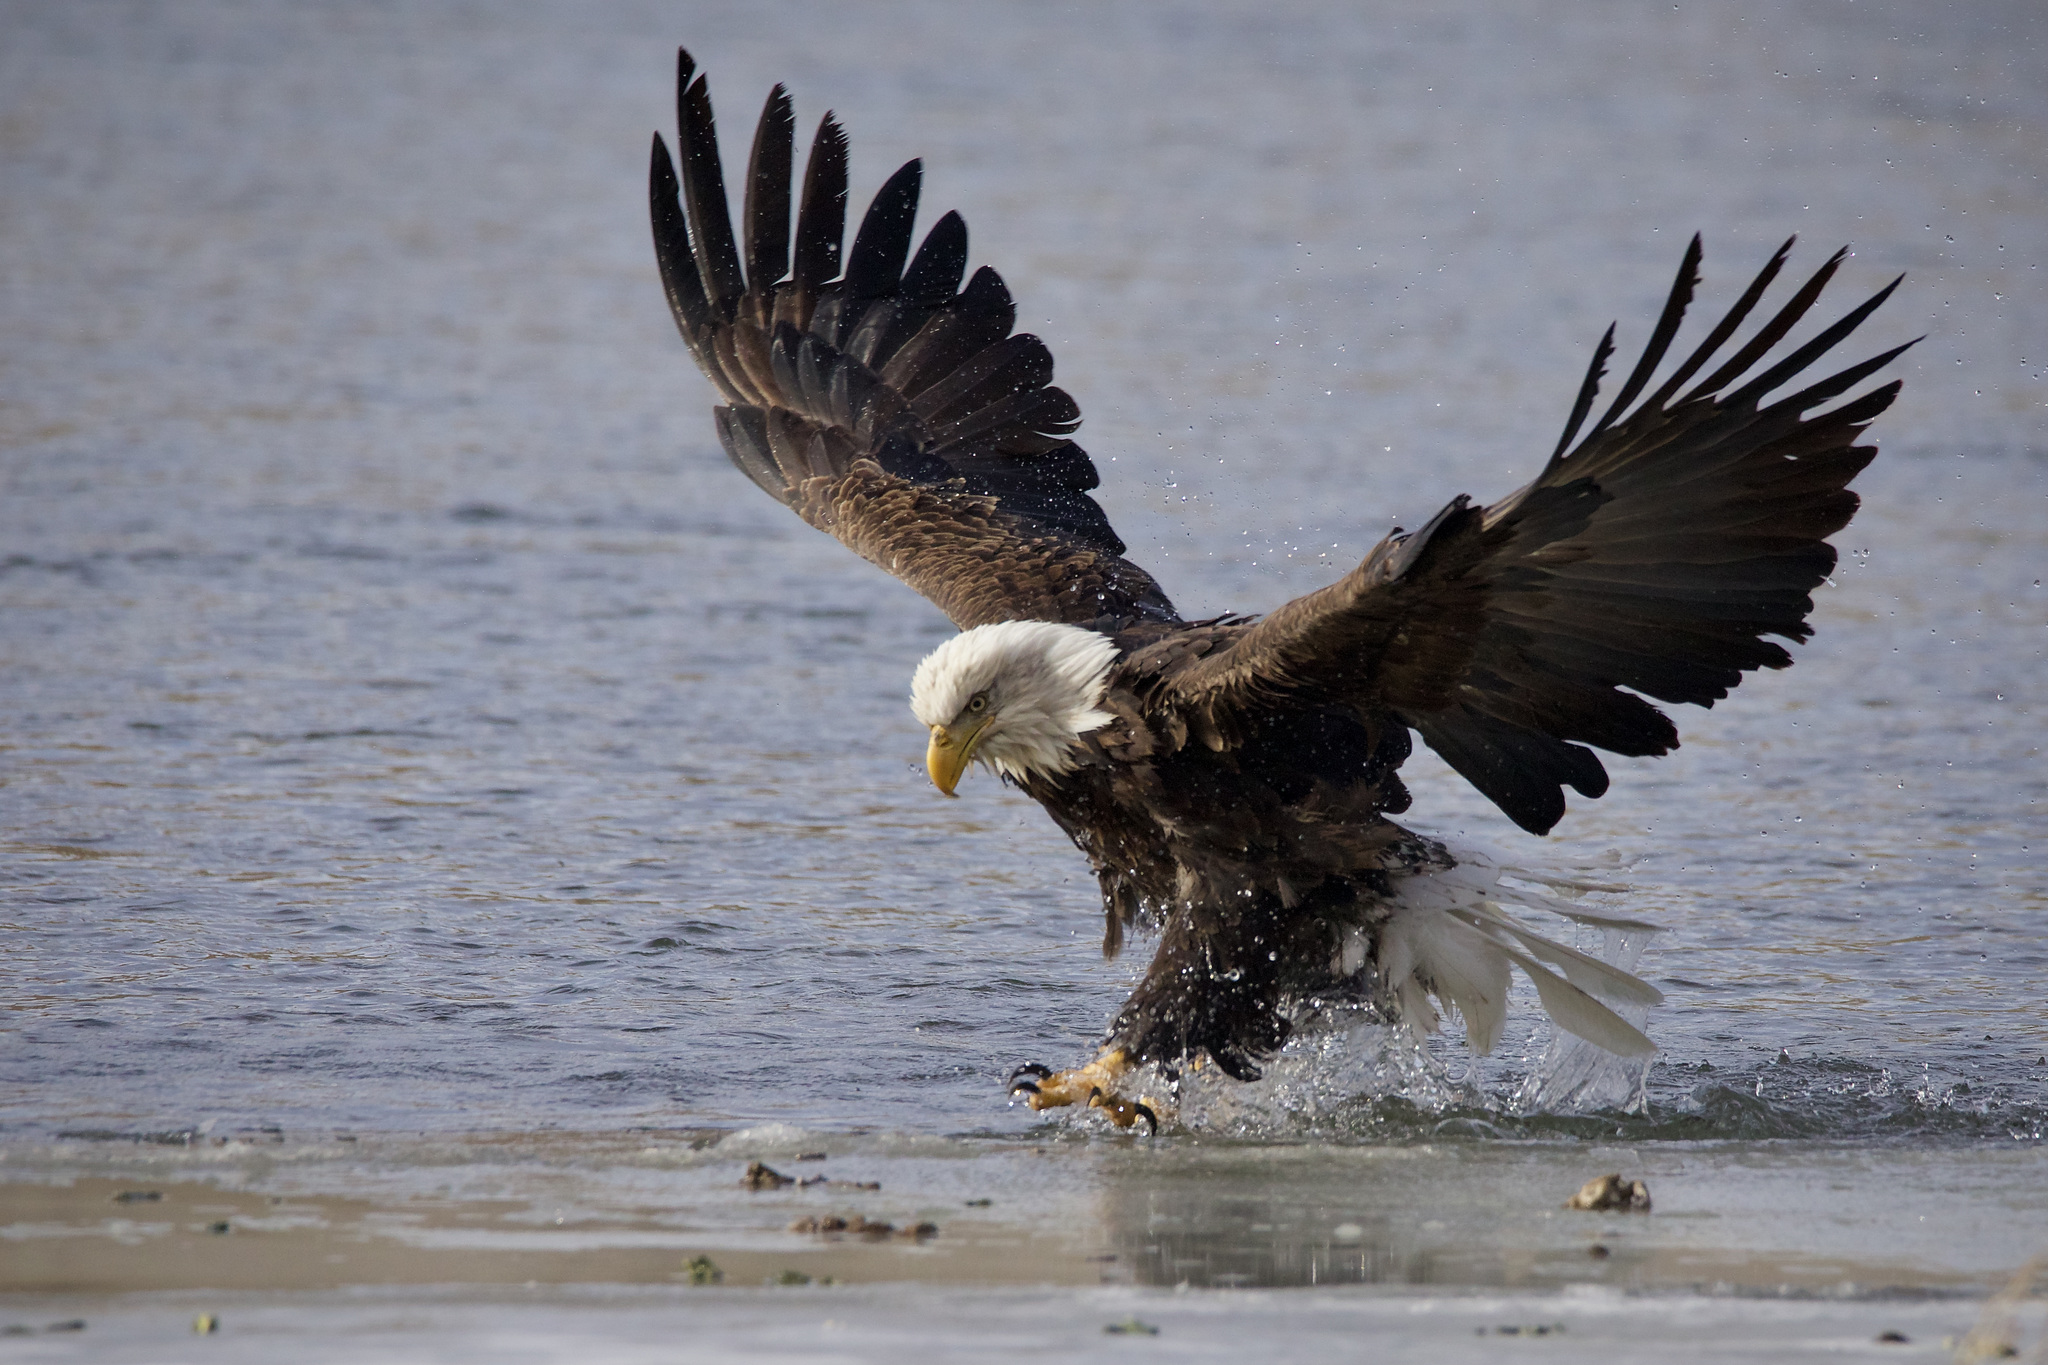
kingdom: Animalia
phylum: Chordata
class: Aves
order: Accipitriformes
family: Accipitridae
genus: Haliaeetus
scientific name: Haliaeetus leucocephalus
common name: Bald eagle
